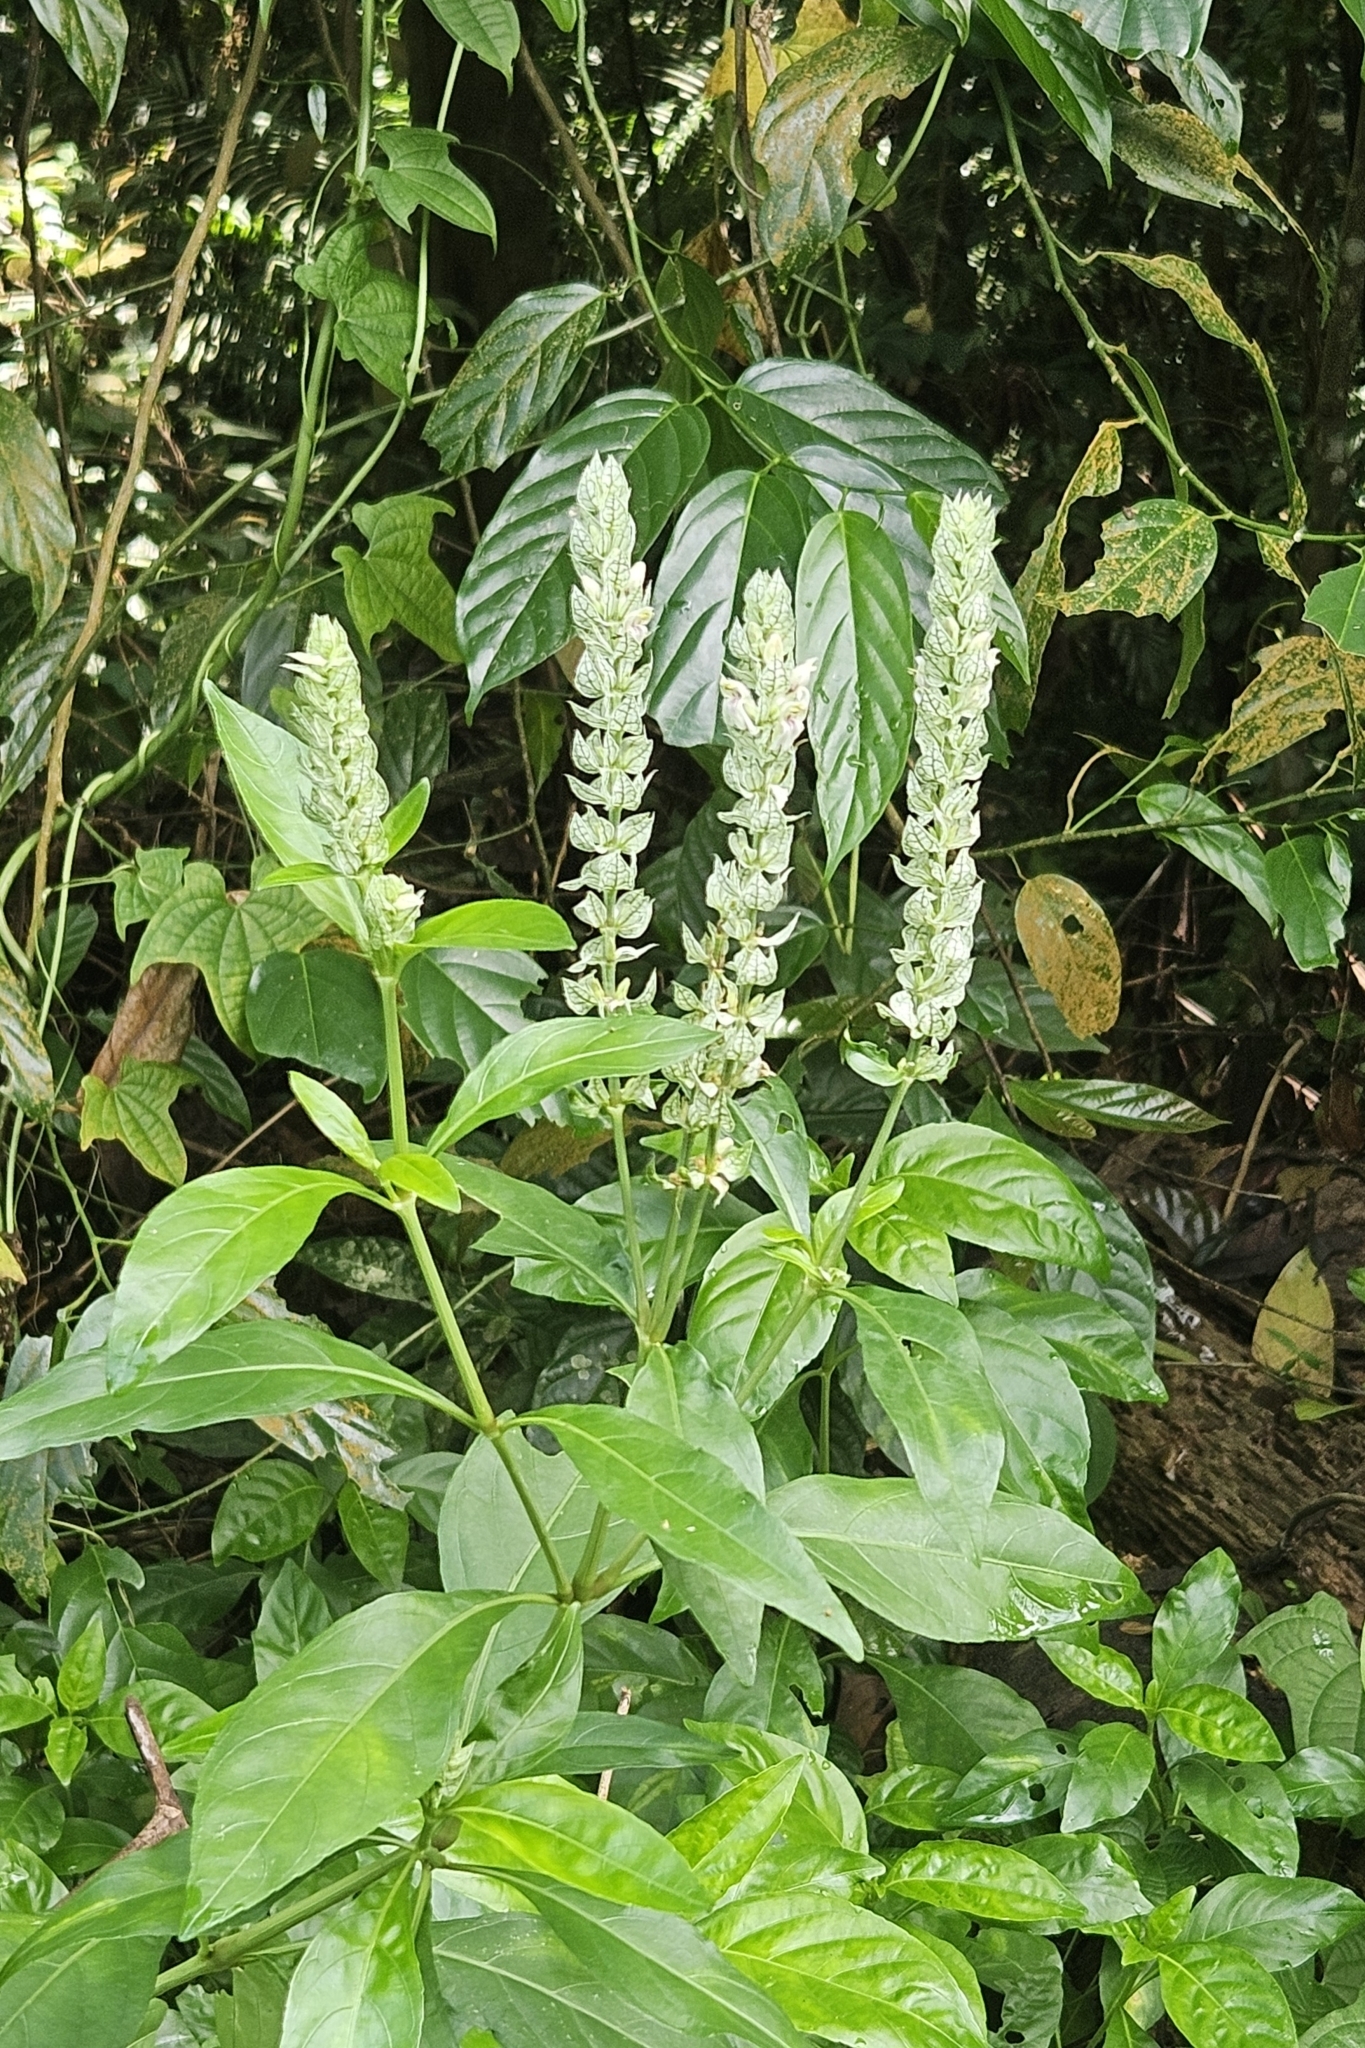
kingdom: Plantae
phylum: Tracheophyta
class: Magnoliopsida
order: Lamiales
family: Acanthaceae
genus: Justicia
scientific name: Justicia betonica
